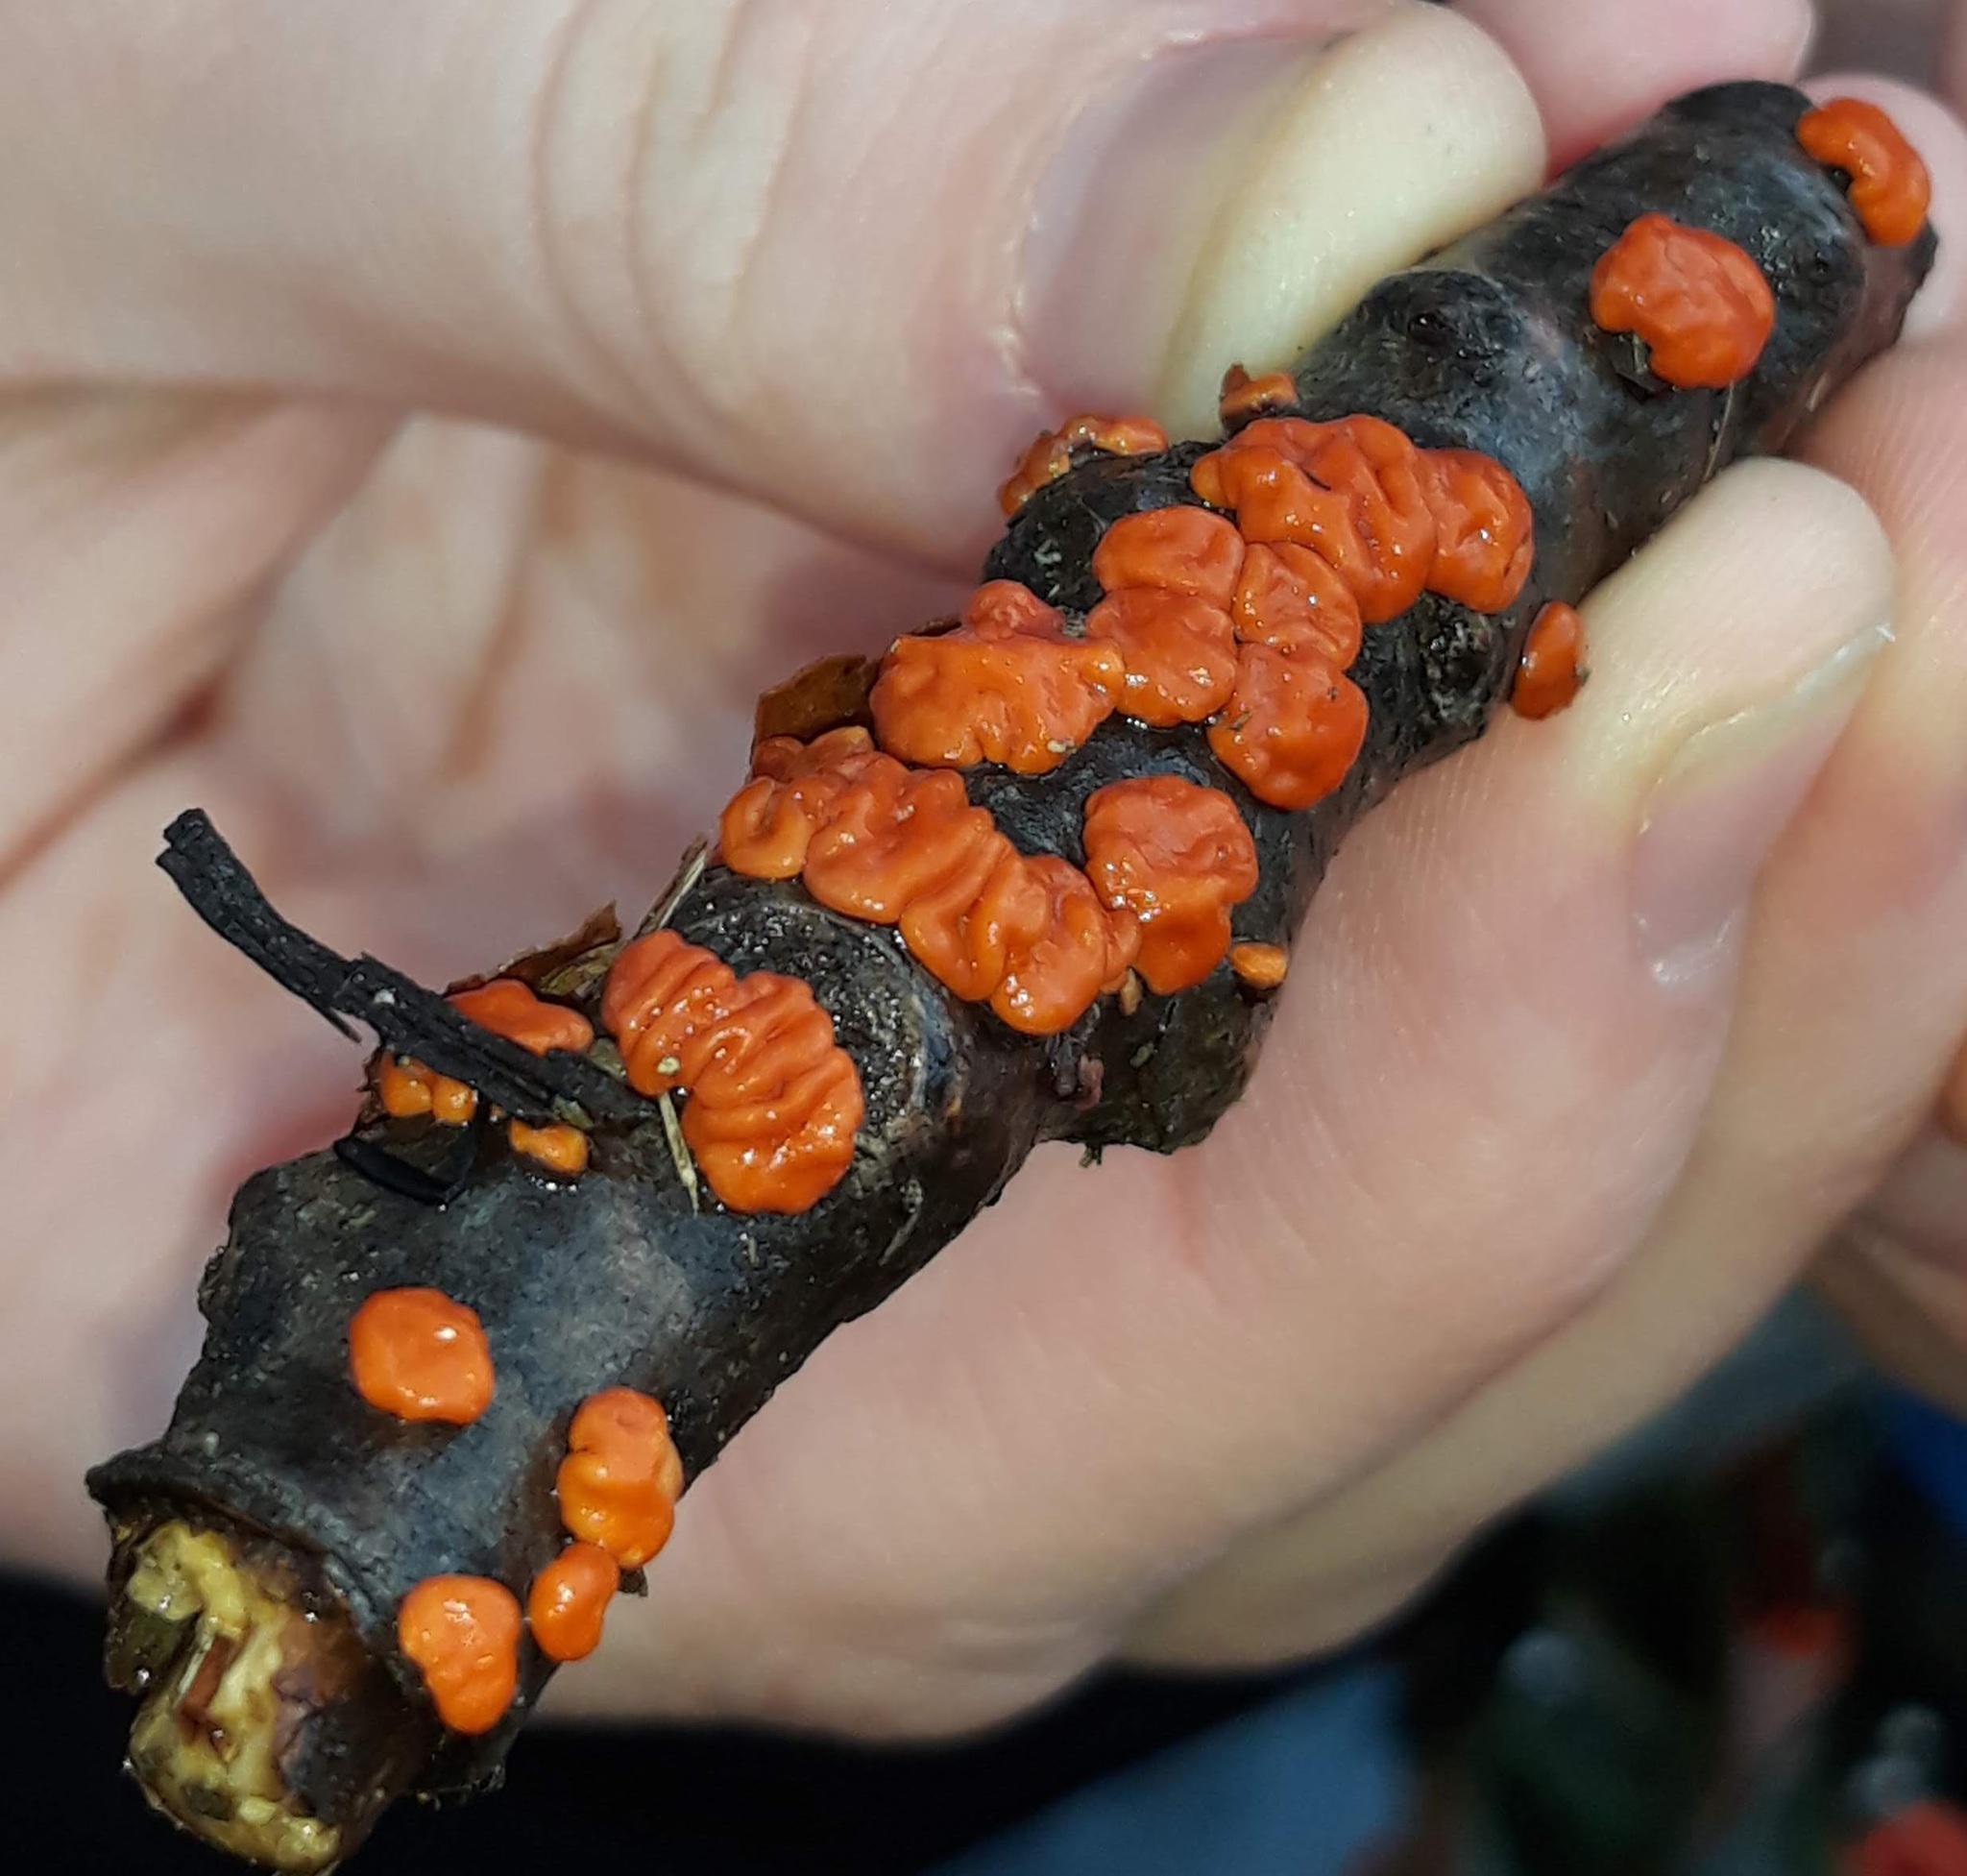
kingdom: Fungi
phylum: Basidiomycota
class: Agaricomycetes
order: Russulales
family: Peniophoraceae
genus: Peniophora
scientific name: Peniophora rufa
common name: Red tree brain fungus
